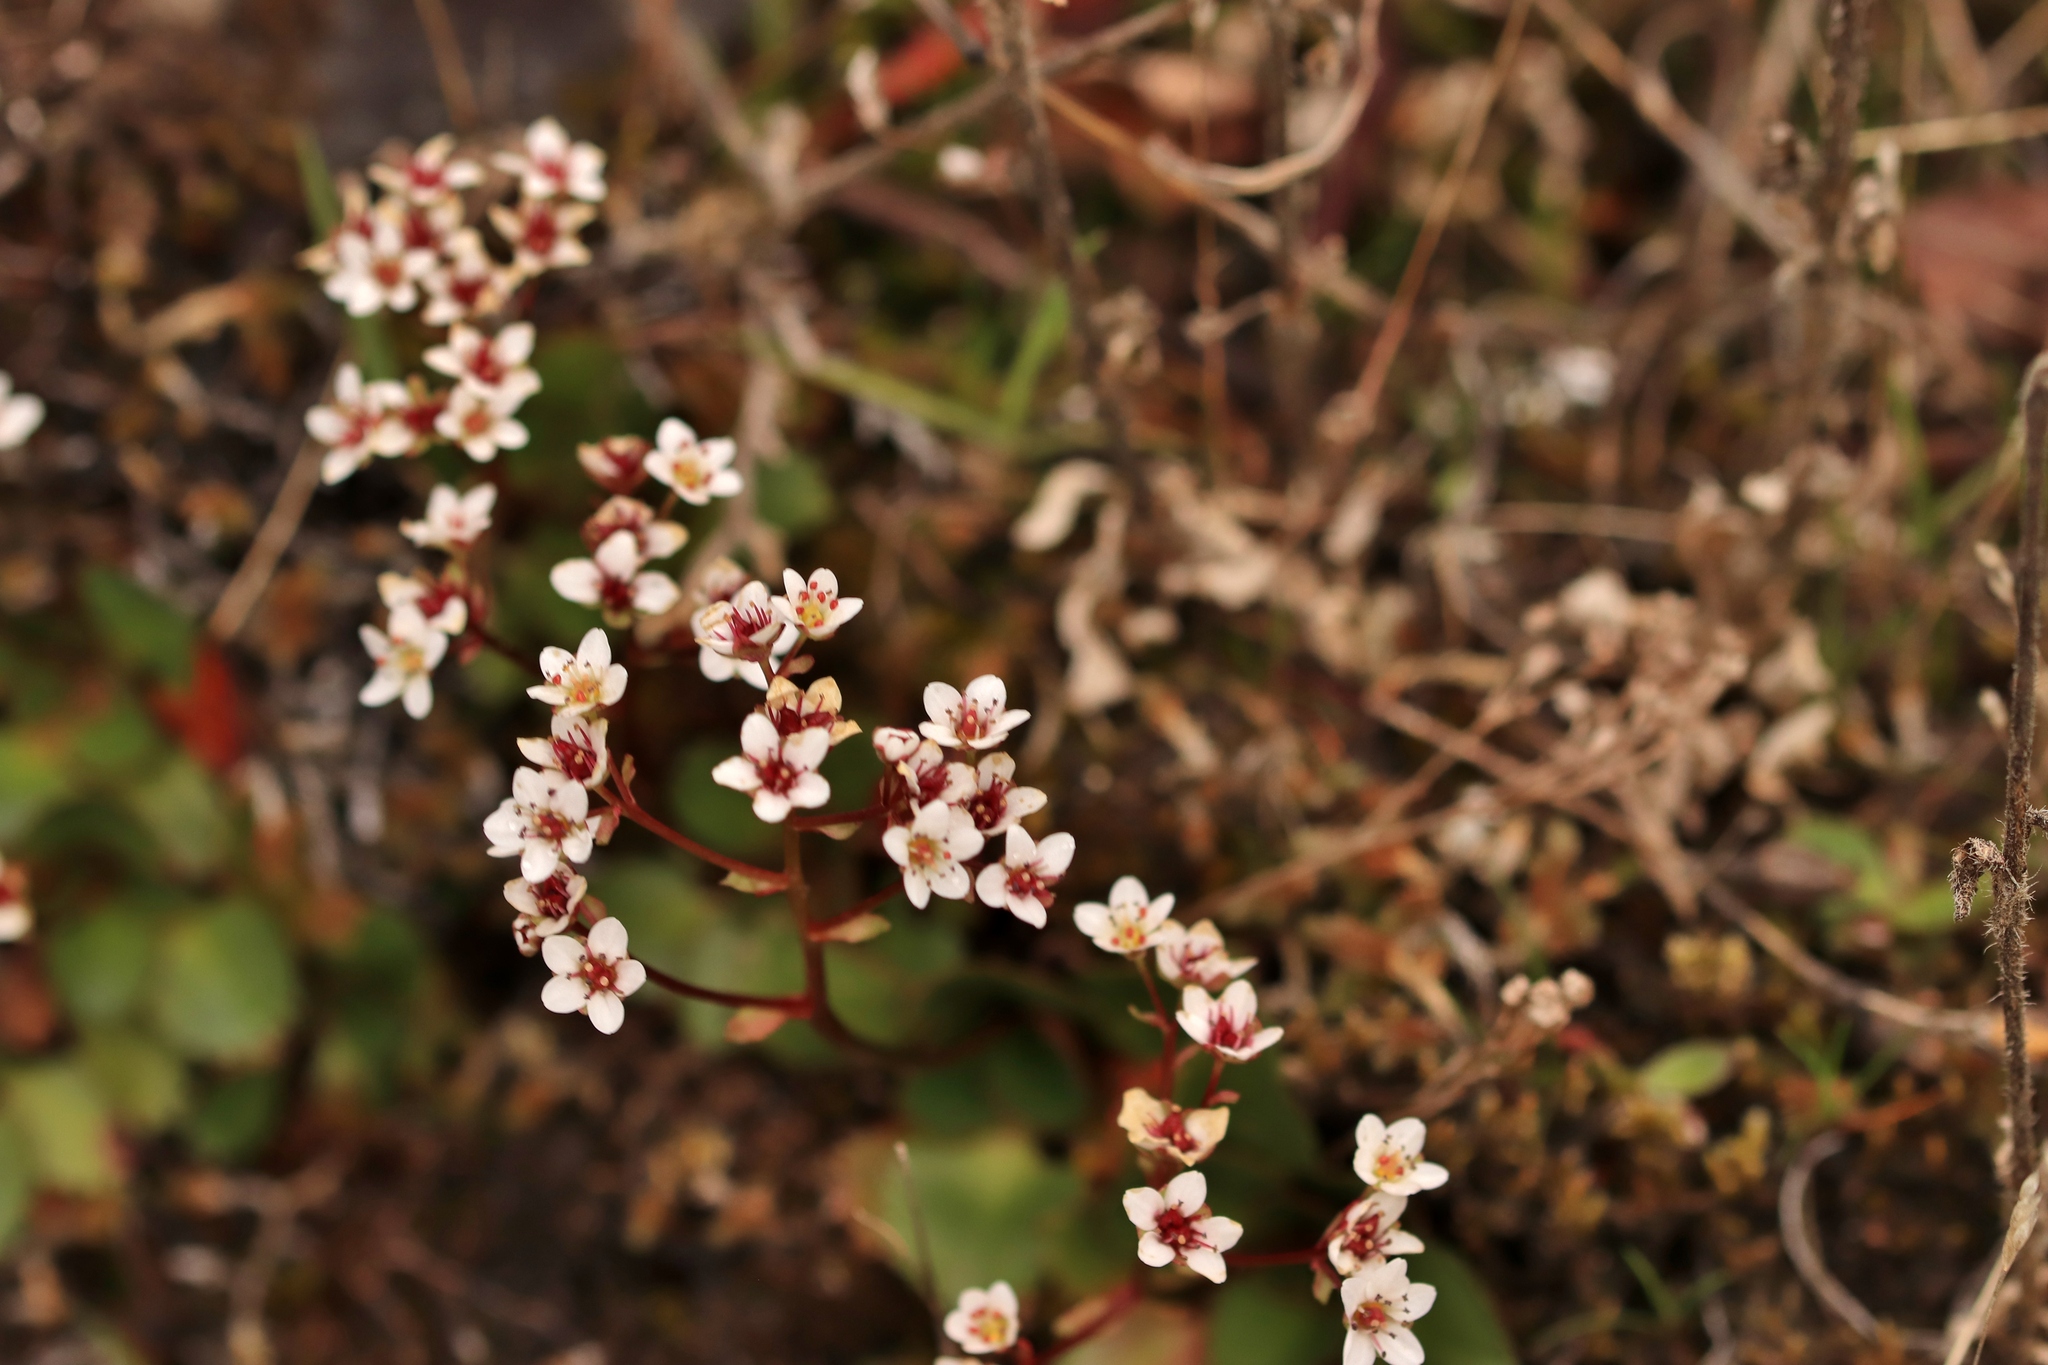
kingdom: Plantae
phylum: Tracheophyta
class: Magnoliopsida
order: Saxifragales
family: Saxifragaceae
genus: Micranthes
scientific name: Micranthes rufidula
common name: Rustyhair saxifrage
